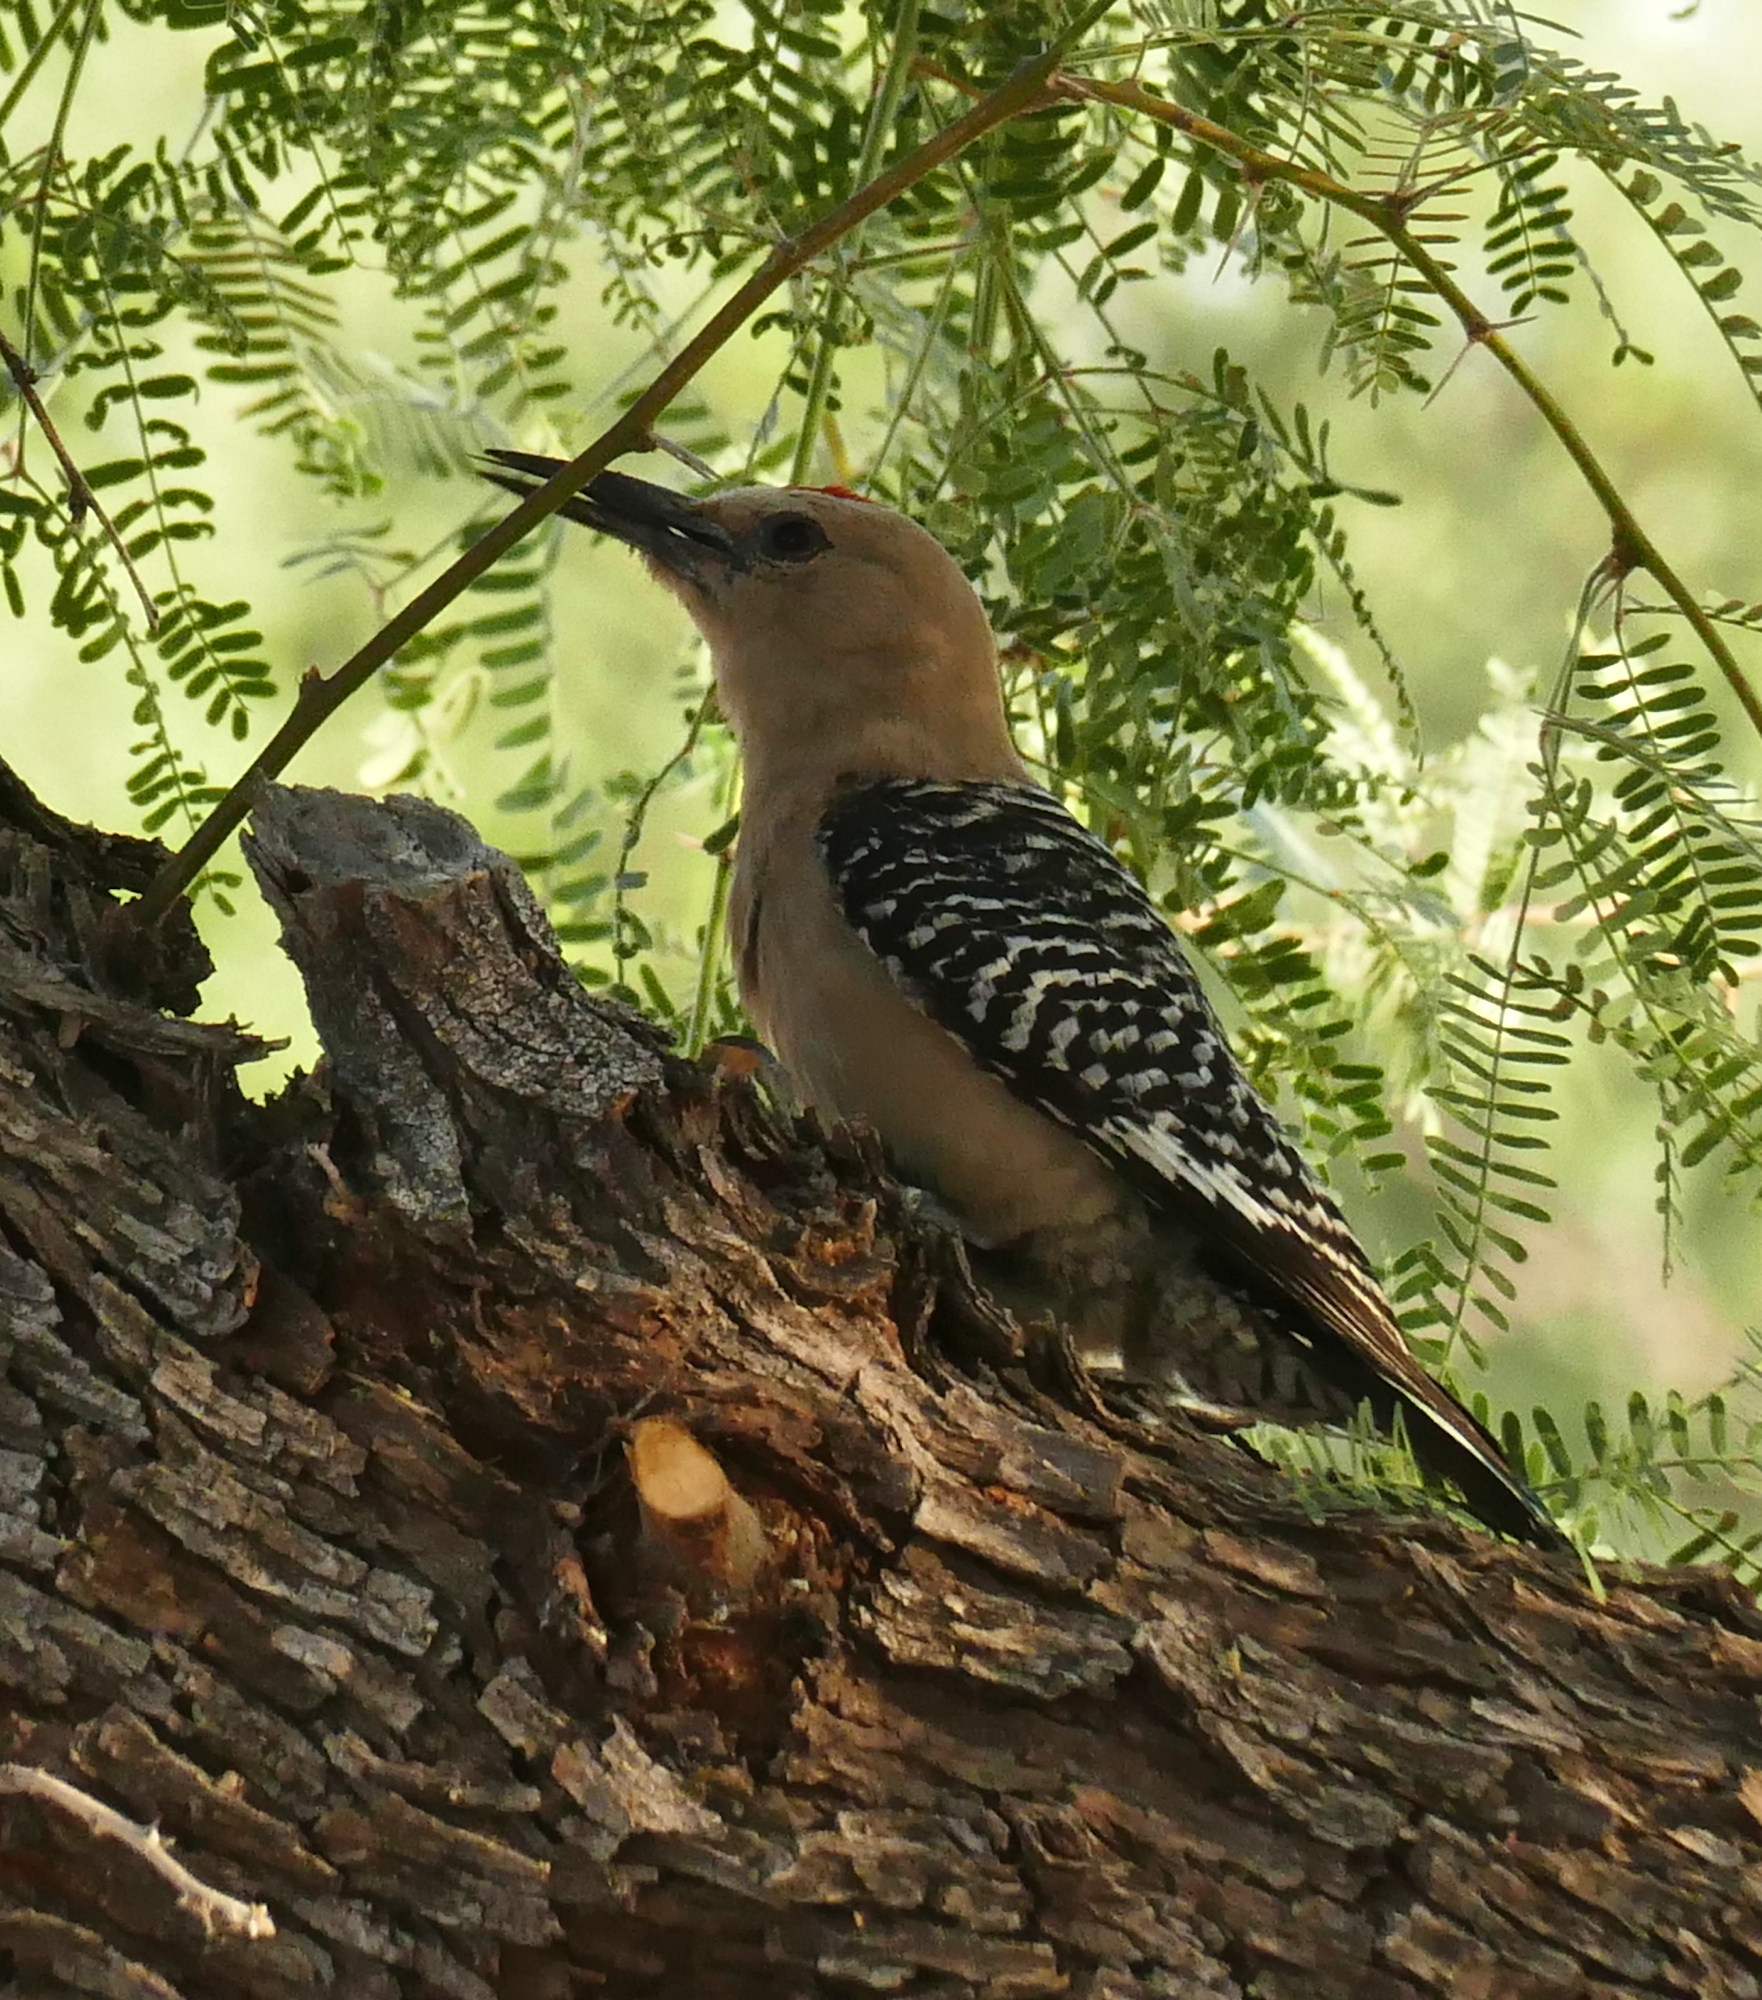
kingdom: Animalia
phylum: Chordata
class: Aves
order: Piciformes
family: Picidae
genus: Melanerpes
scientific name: Melanerpes uropygialis
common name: Gila woodpecker
